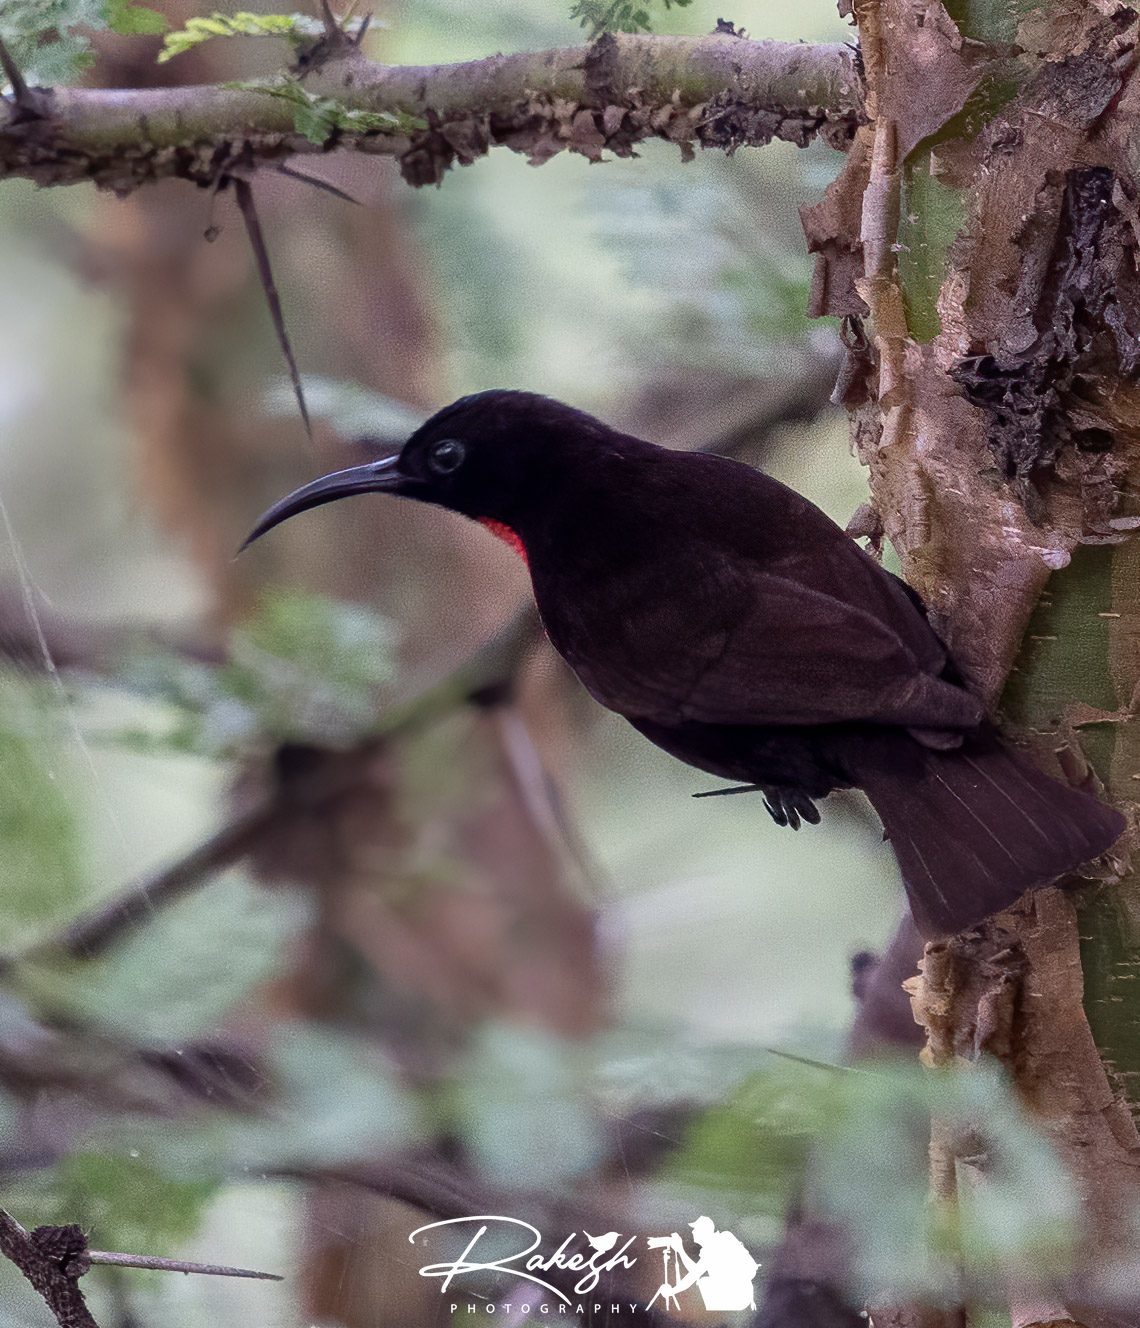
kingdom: Animalia
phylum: Chordata
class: Aves
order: Passeriformes
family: Nectariniidae
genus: Chalcomitra
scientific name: Chalcomitra senegalensis
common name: Scarlet-chested sunbird
